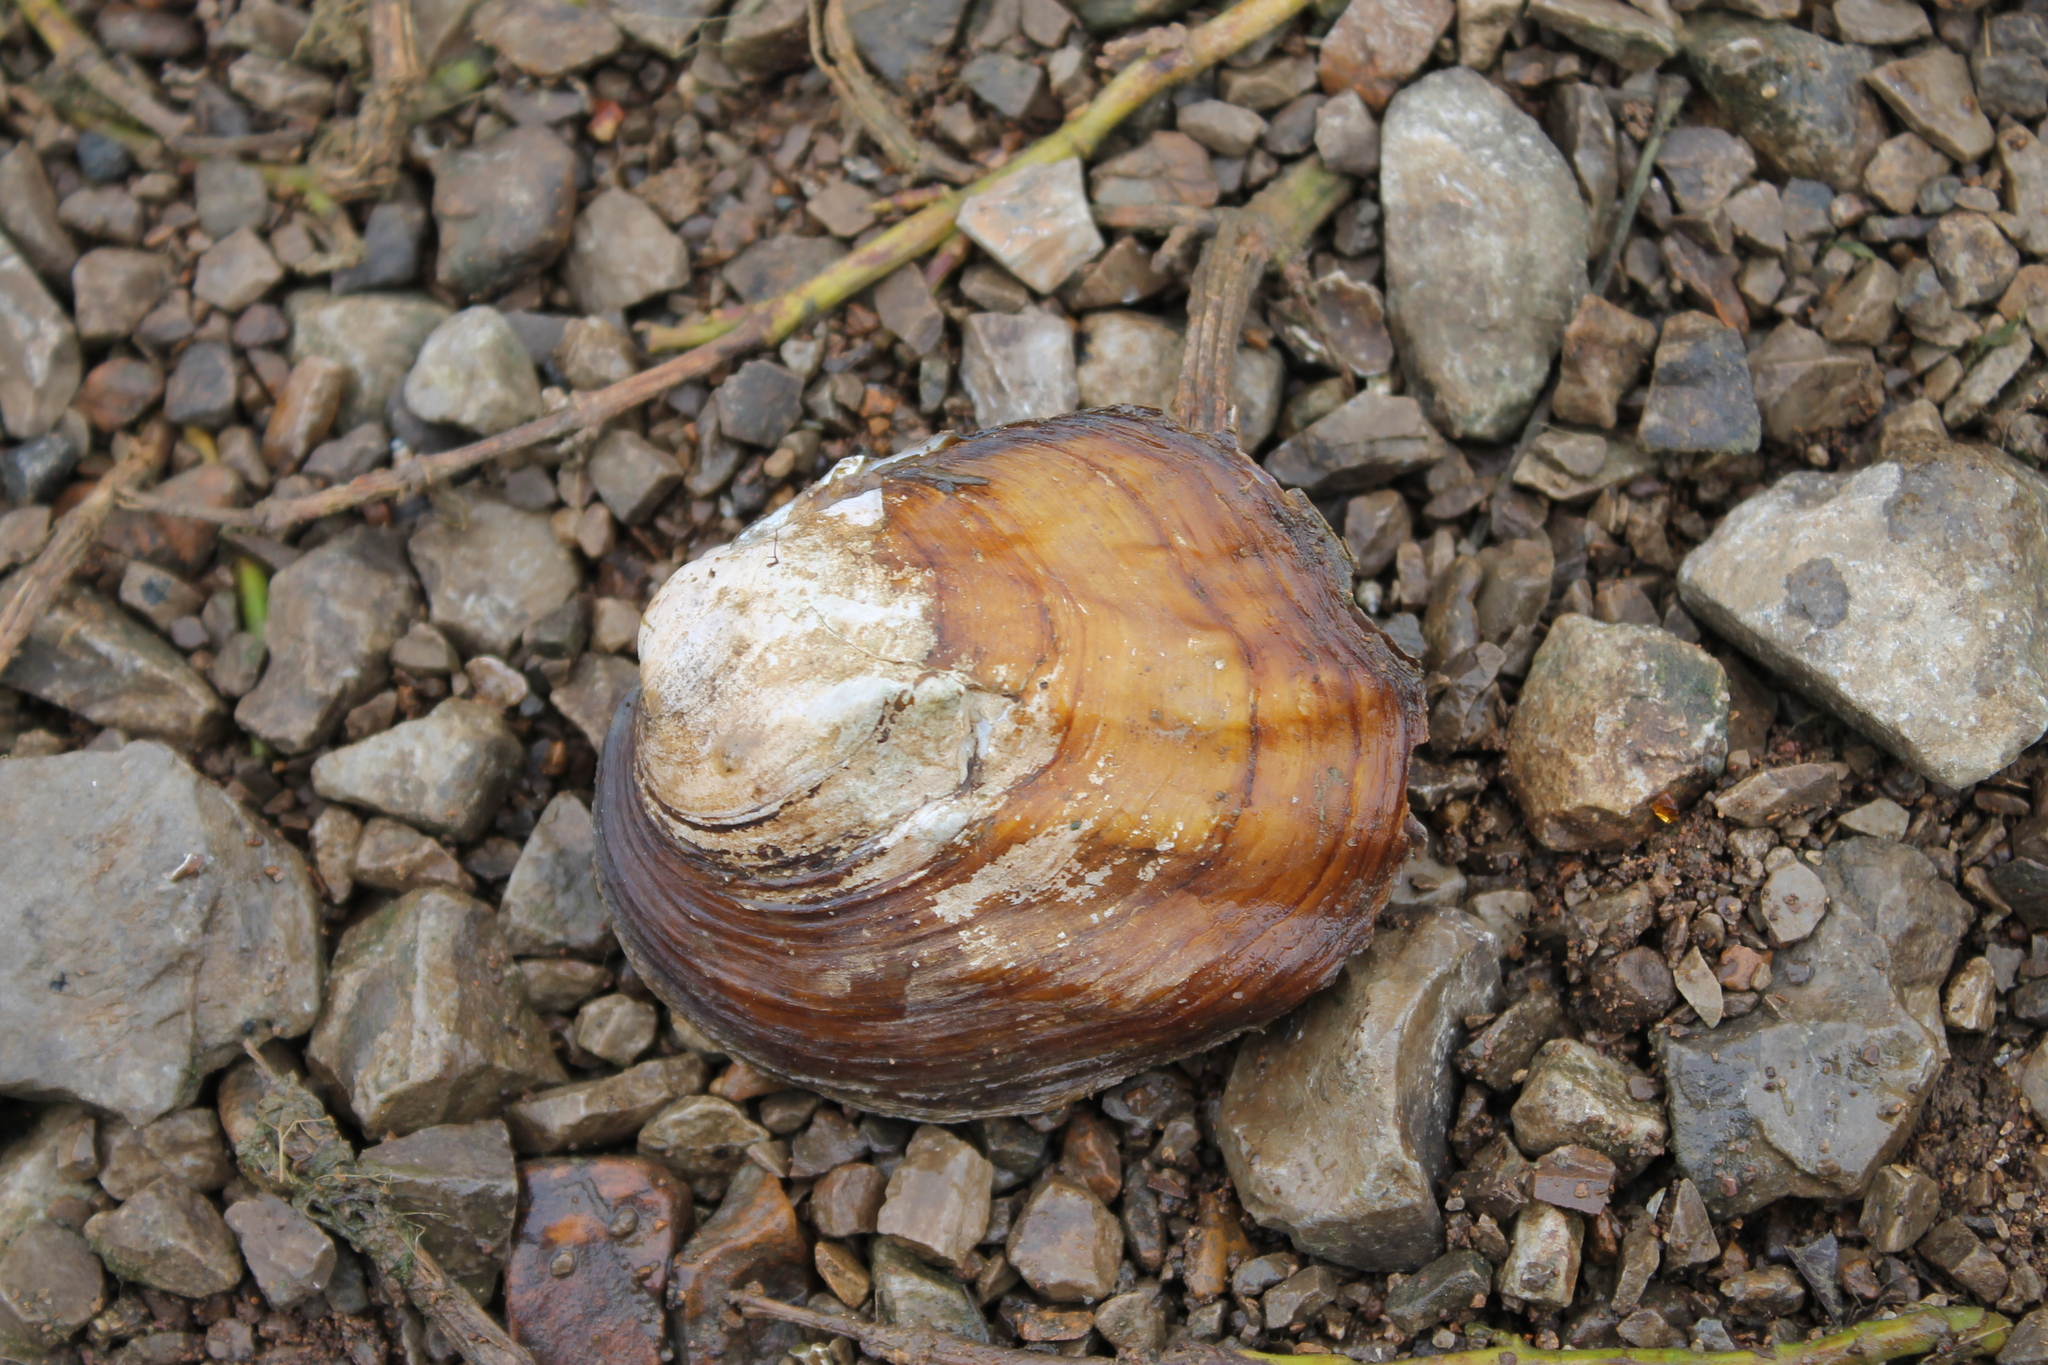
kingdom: Animalia
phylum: Mollusca
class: Bivalvia
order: Unionida
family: Unionidae
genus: Amblema
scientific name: Amblema plicata
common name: Threeridge
